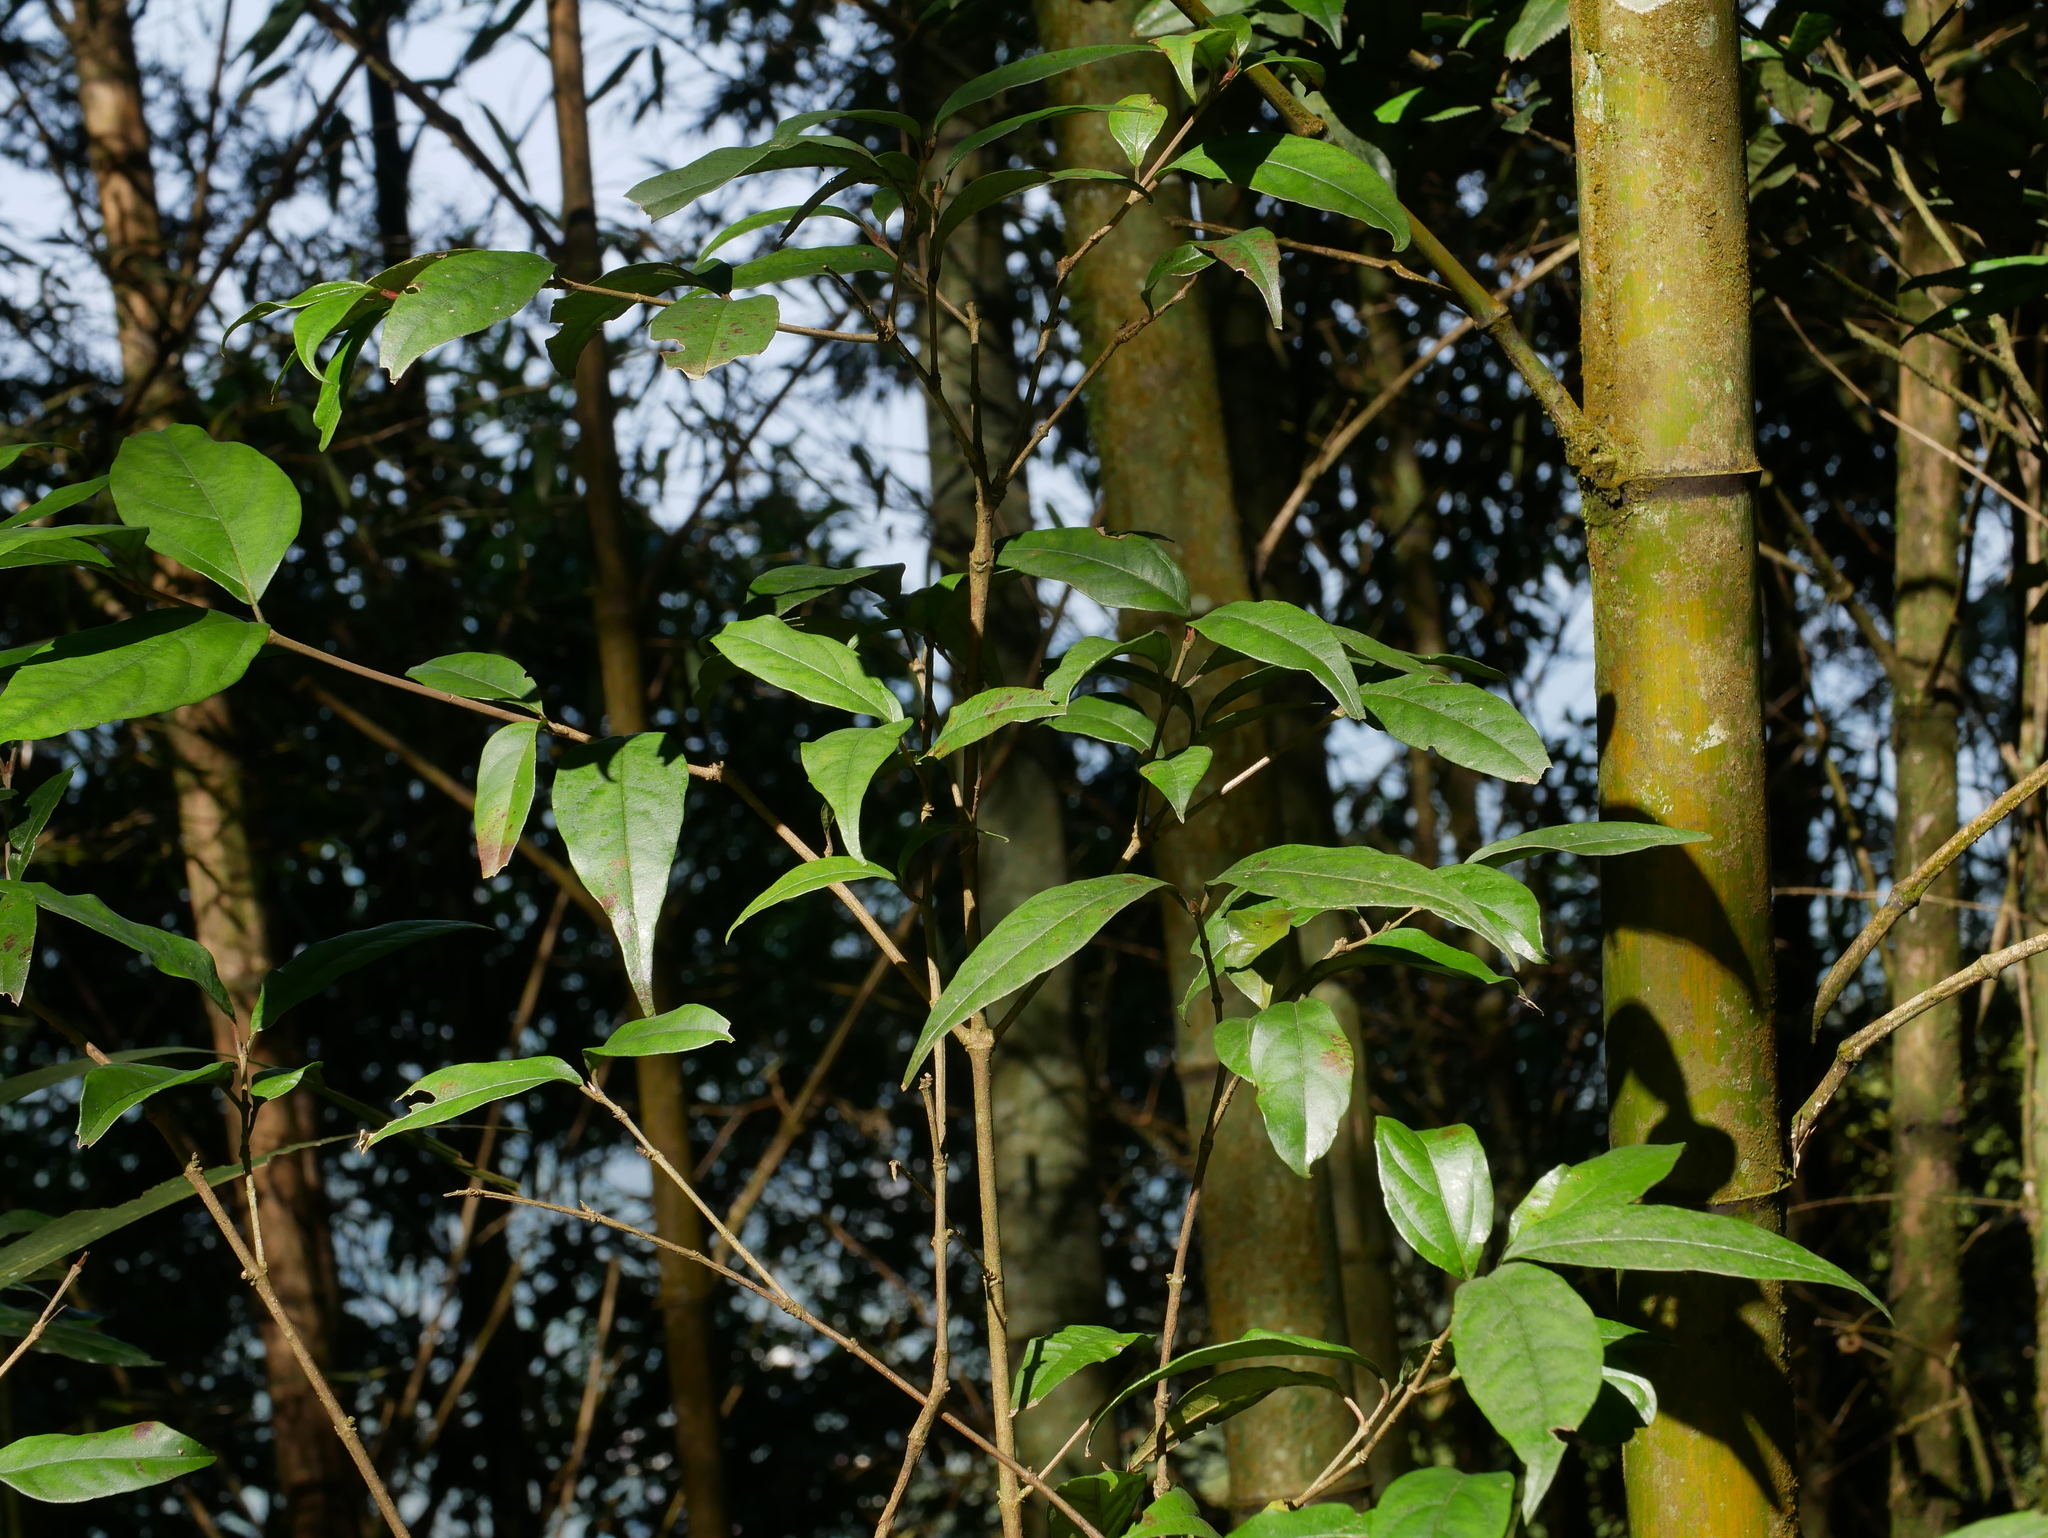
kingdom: Plantae
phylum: Tracheophyta
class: Magnoliopsida
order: Dipsacales
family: Viburnaceae
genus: Viburnum
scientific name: Viburnum integrifolium
